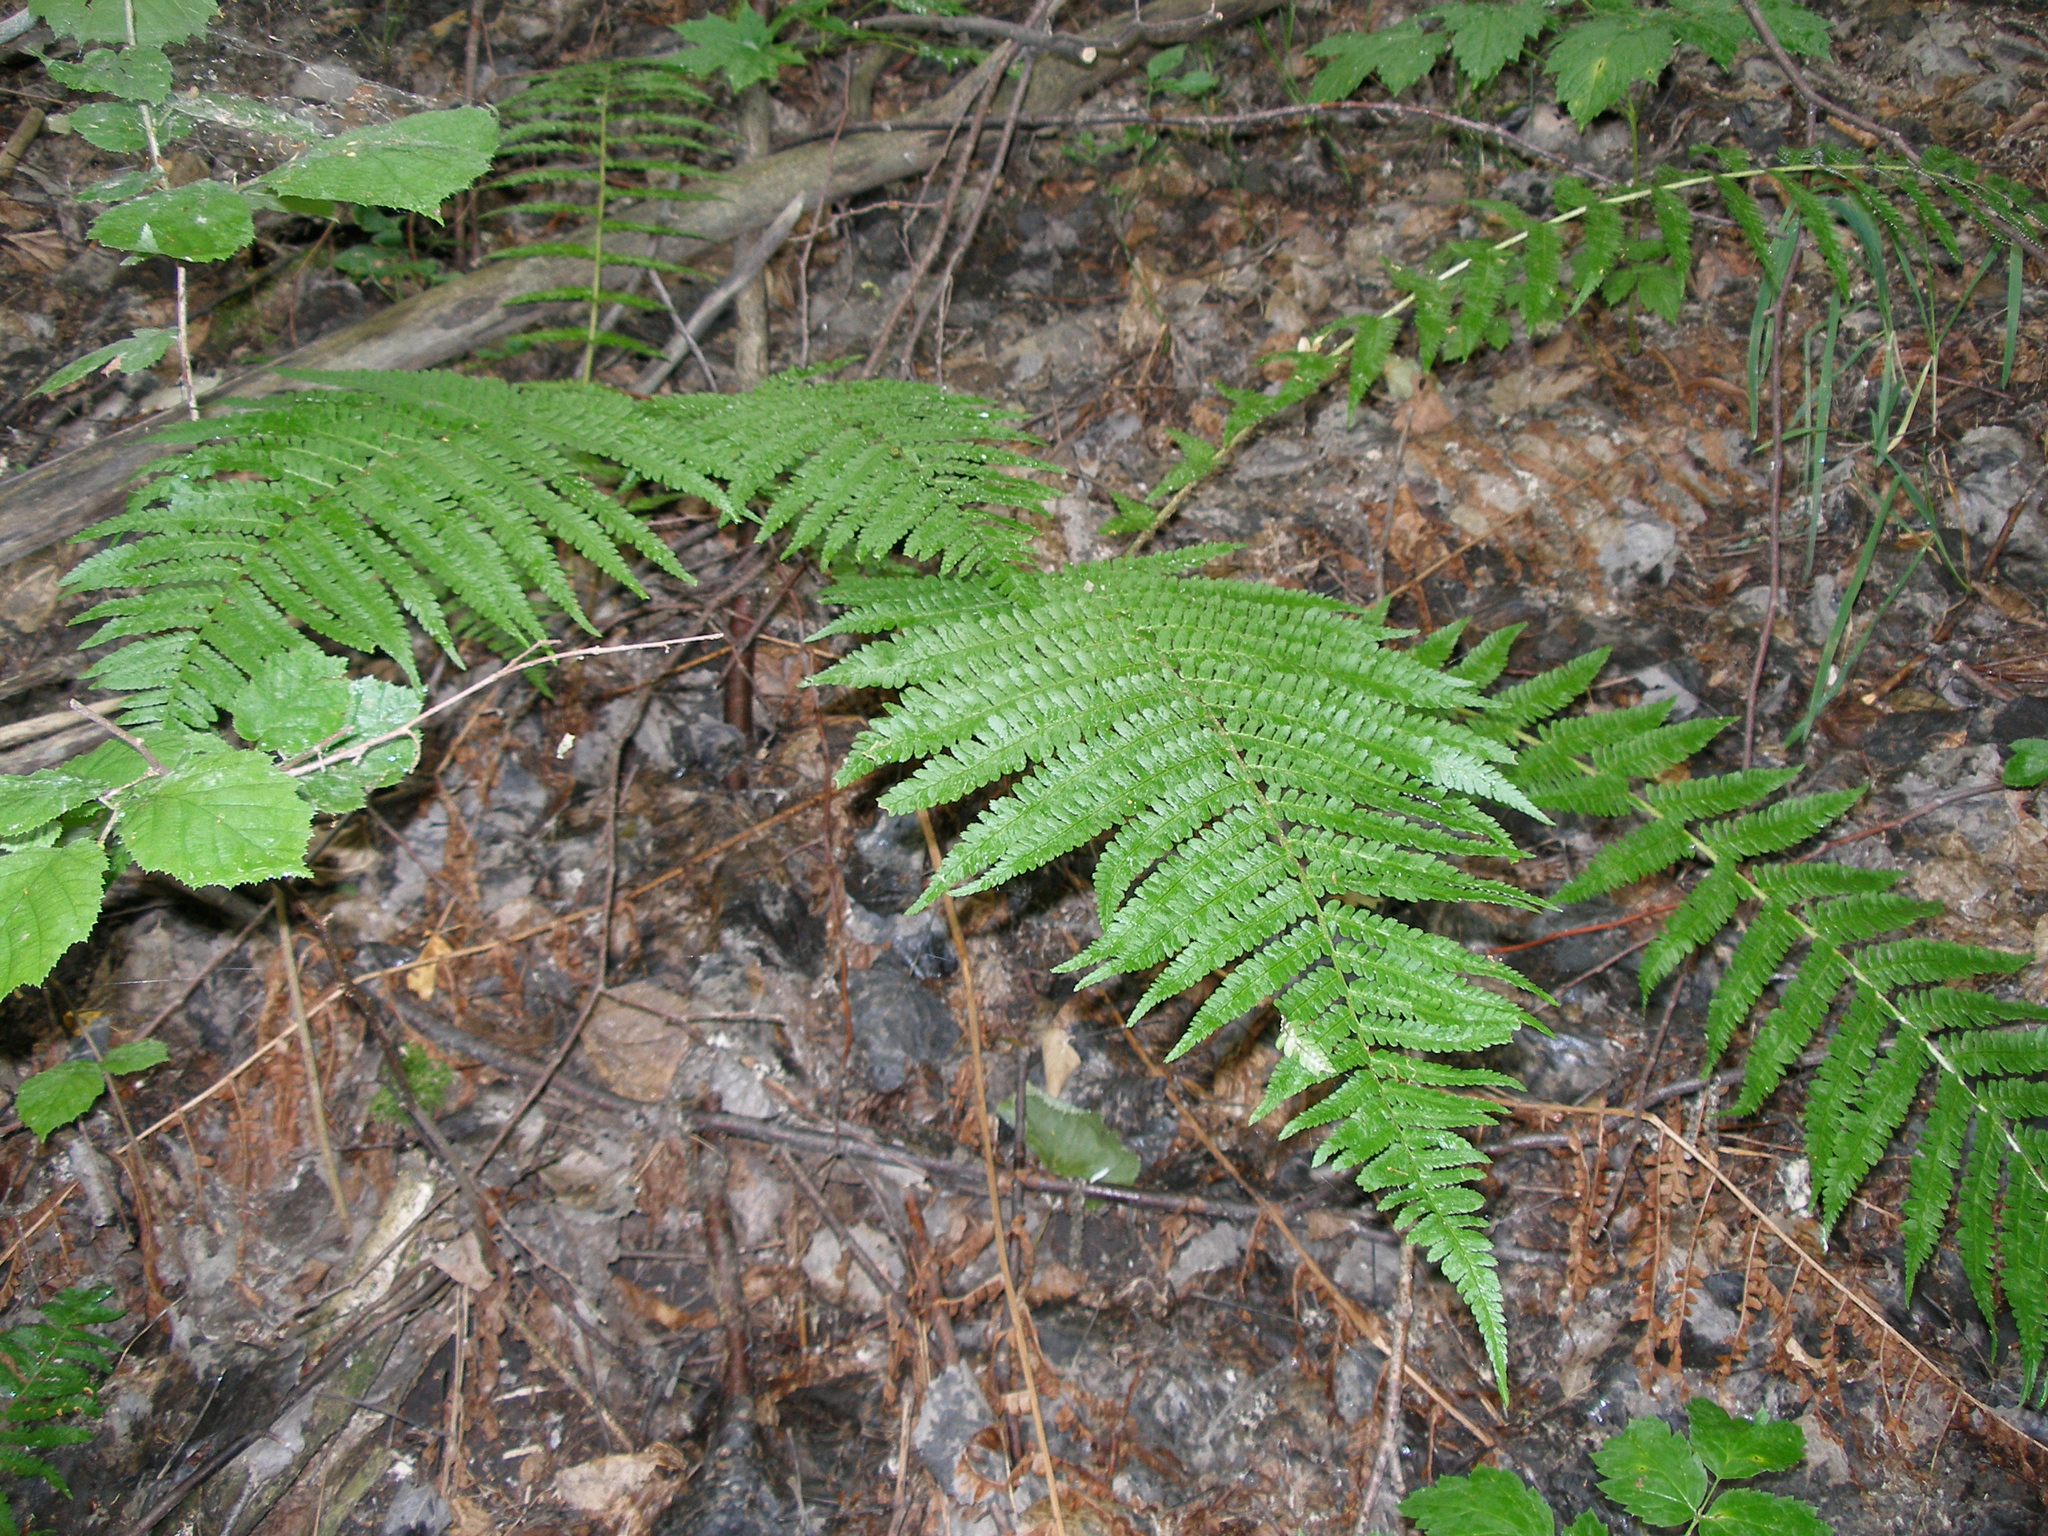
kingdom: Plantae
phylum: Tracheophyta
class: Polypodiopsida
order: Polypodiales
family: Dryopteridaceae
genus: Dryopteris
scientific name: Dryopteris filix-mas
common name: Male fern
